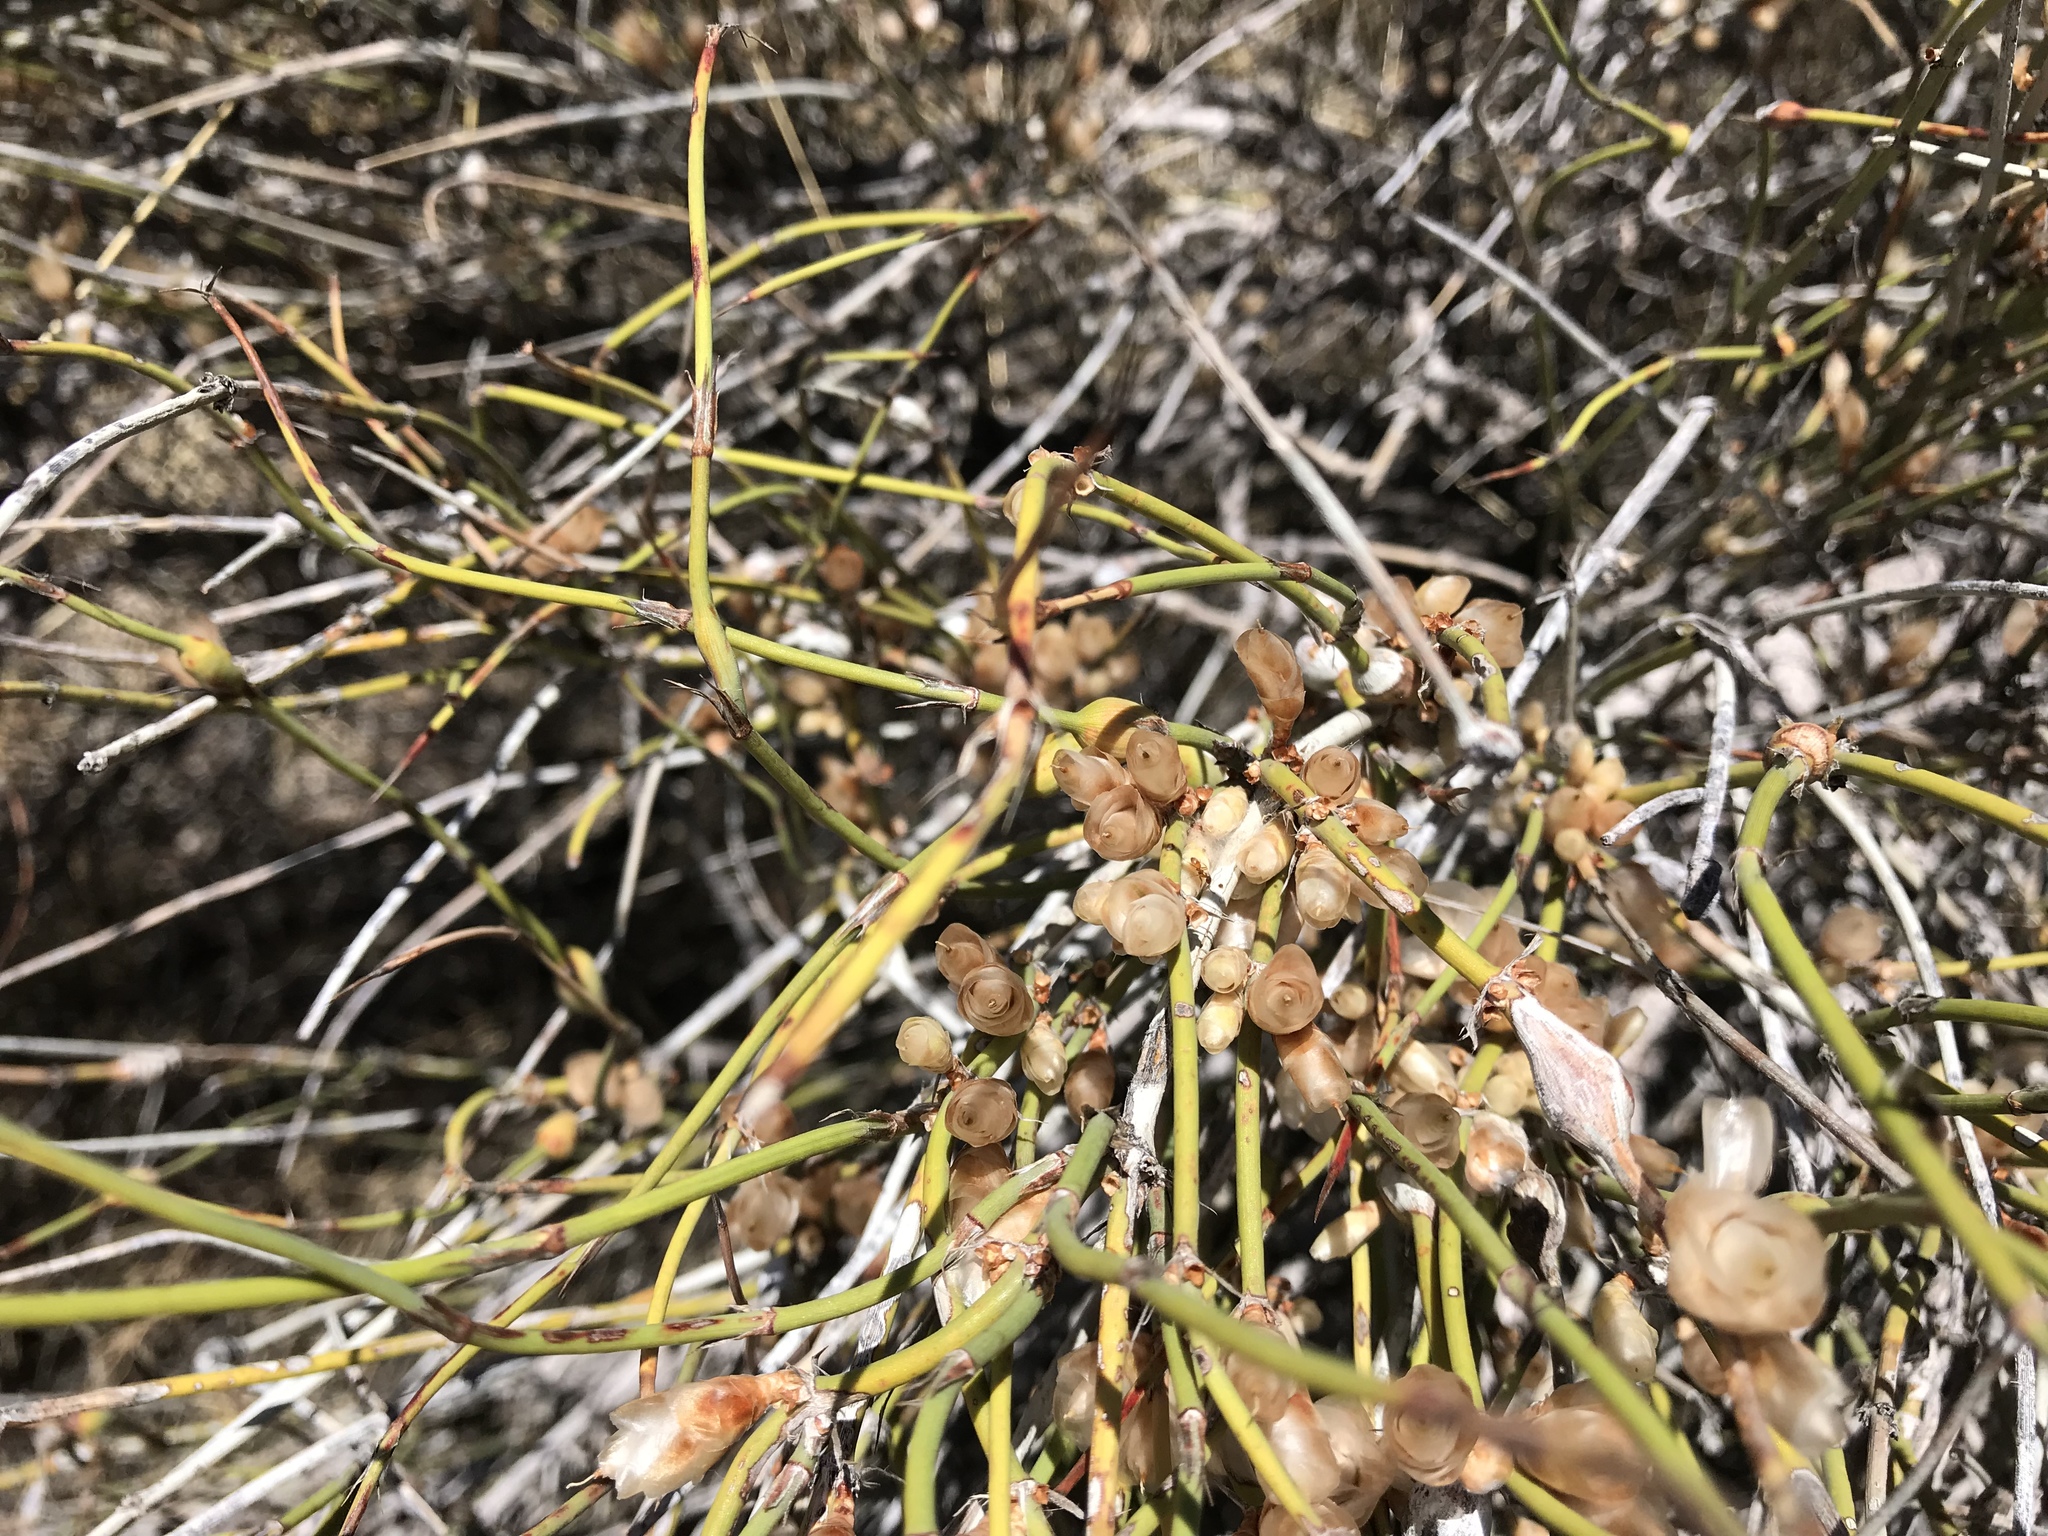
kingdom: Plantae
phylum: Tracheophyta
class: Gnetopsida
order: Ephedrales
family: Ephedraceae
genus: Ephedra
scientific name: Ephedra trifurca
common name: Mexican-tea
